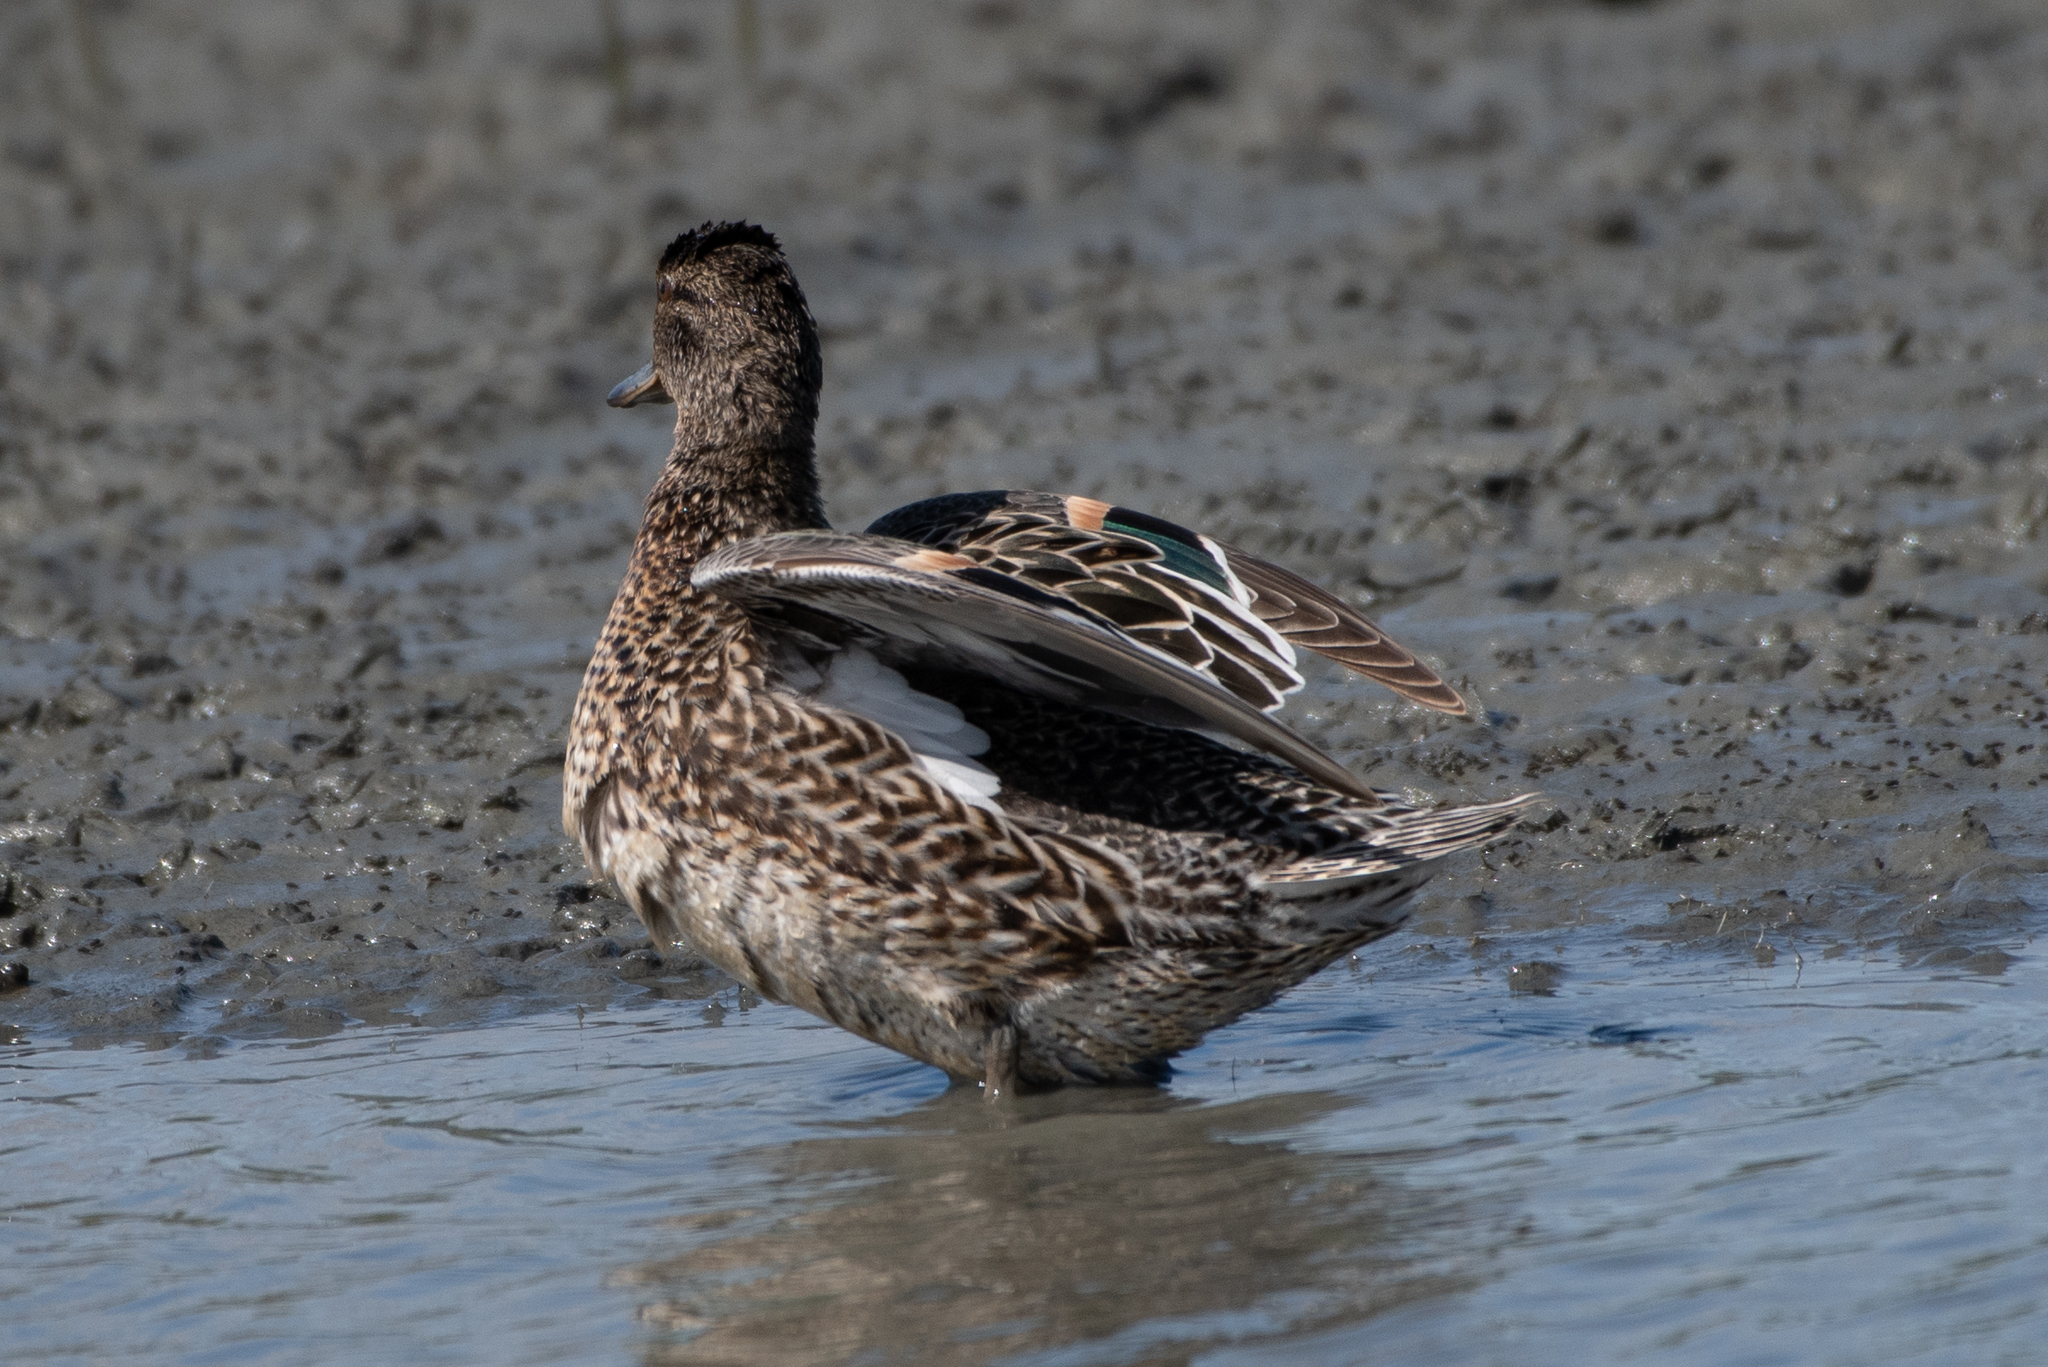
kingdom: Animalia
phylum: Chordata
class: Aves
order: Anseriformes
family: Anatidae
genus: Anas
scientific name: Anas crecca
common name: Eurasian teal
